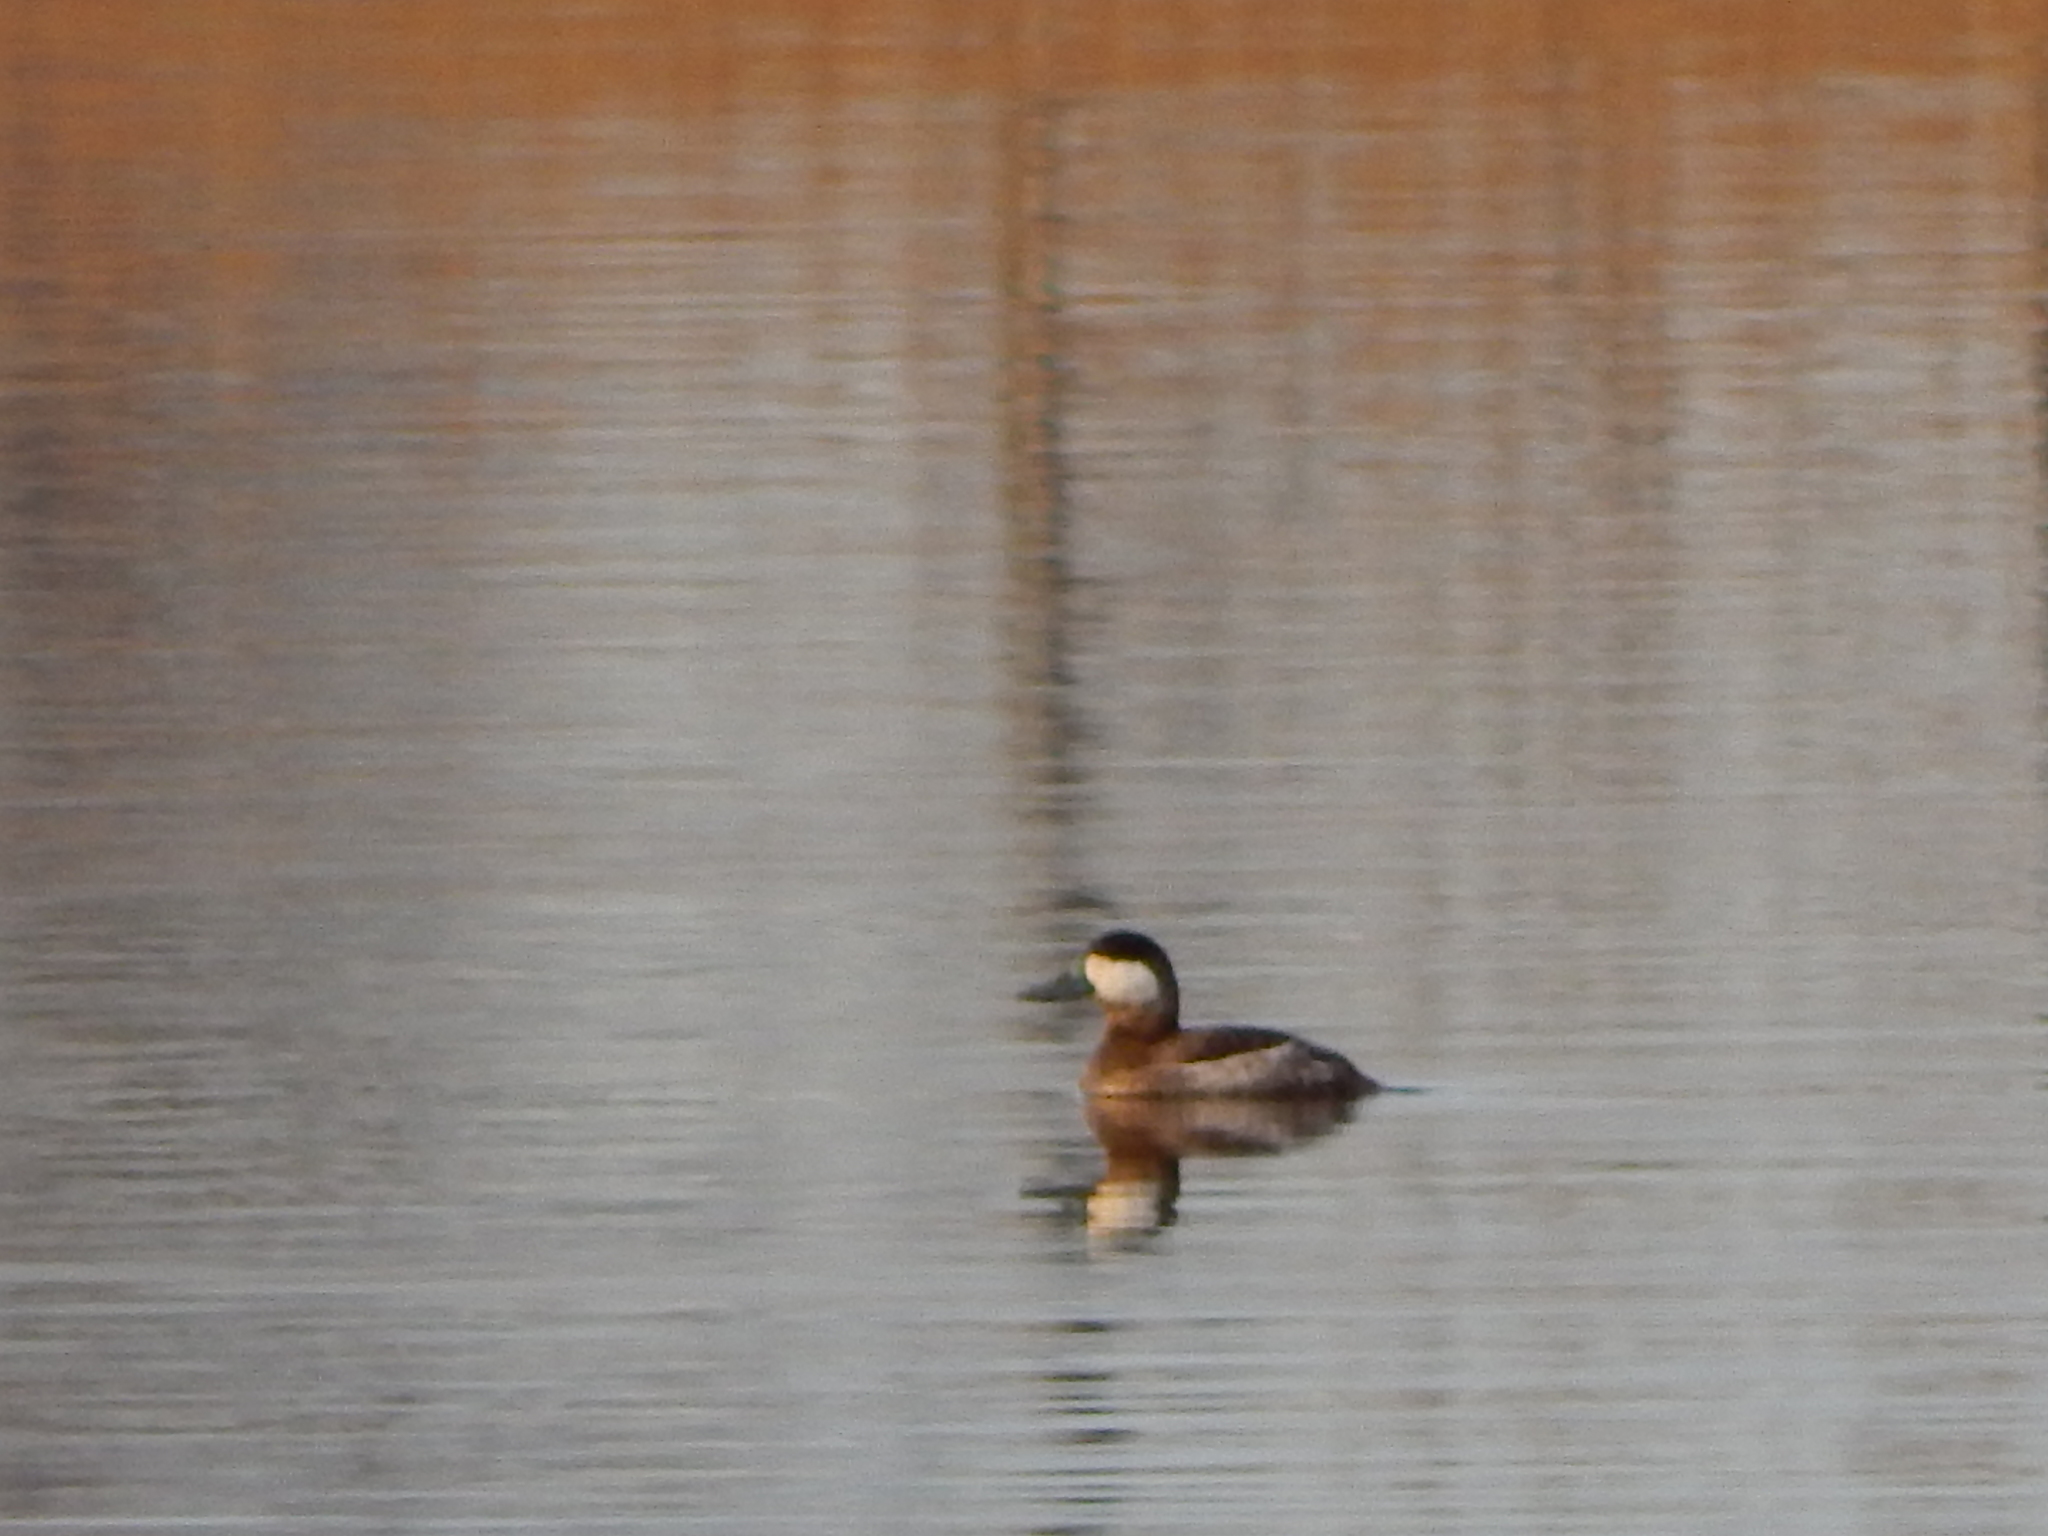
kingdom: Animalia
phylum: Chordata
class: Aves
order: Anseriformes
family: Anatidae
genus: Oxyura
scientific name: Oxyura jamaicensis
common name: Ruddy duck
